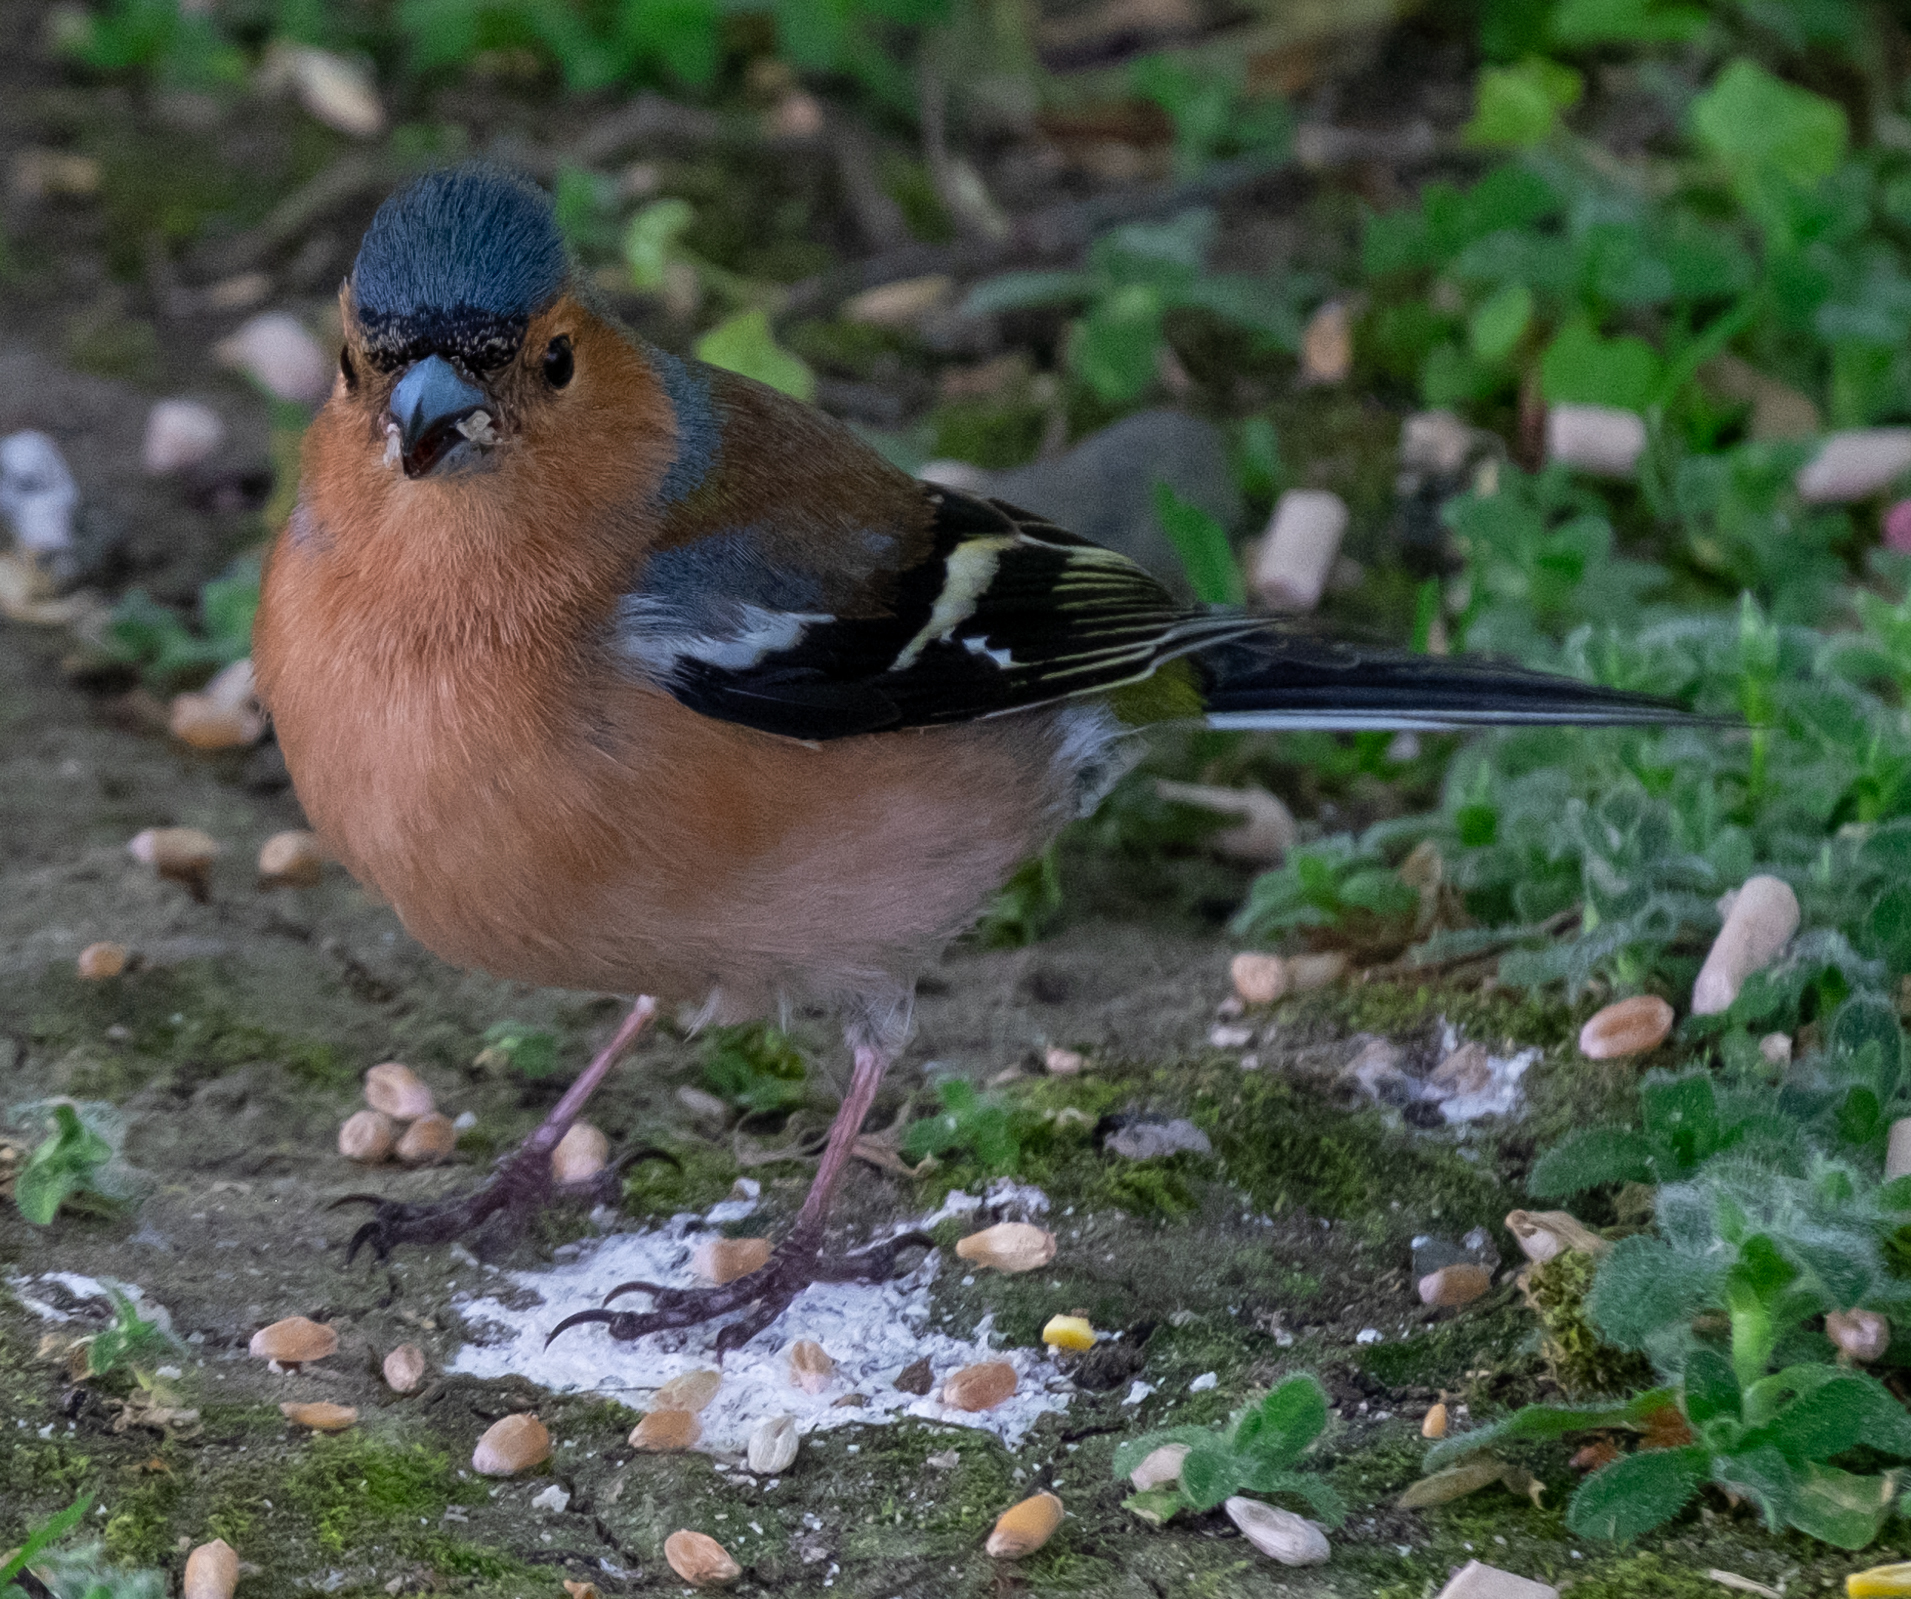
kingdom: Animalia
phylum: Chordata
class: Aves
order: Passeriformes
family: Fringillidae
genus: Fringilla
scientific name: Fringilla coelebs
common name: Common chaffinch
